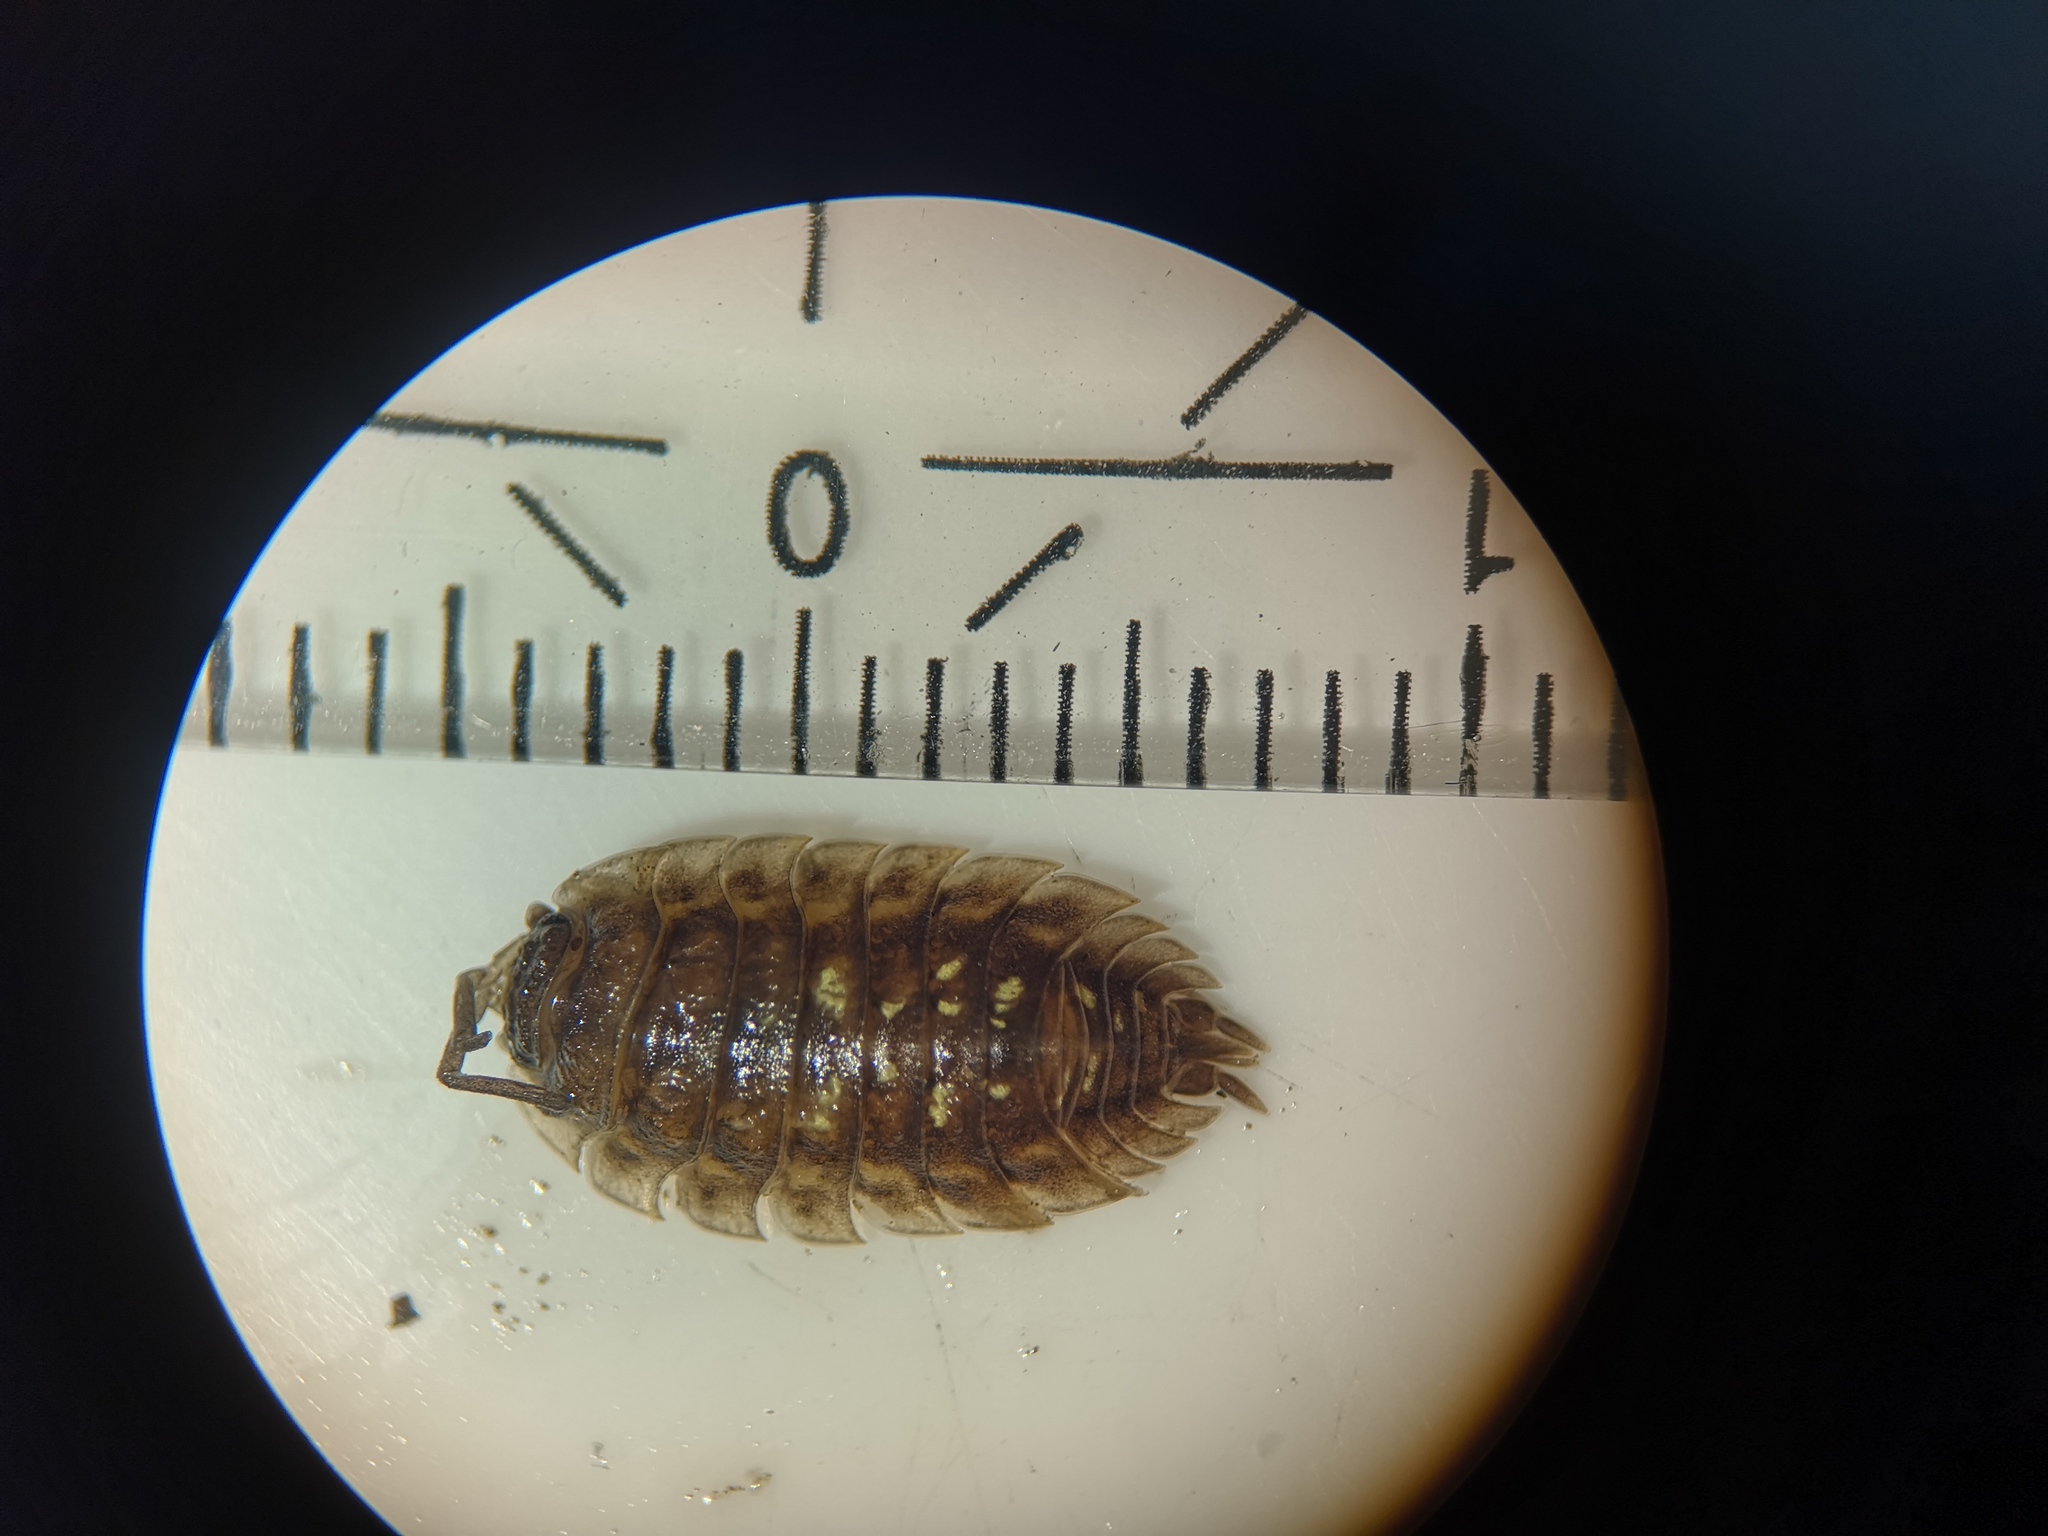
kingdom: Animalia
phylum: Arthropoda
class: Malacostraca
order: Isopoda
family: Oniscidae
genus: Oniscus
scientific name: Oniscus asellus
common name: Common shiny woodlouse
